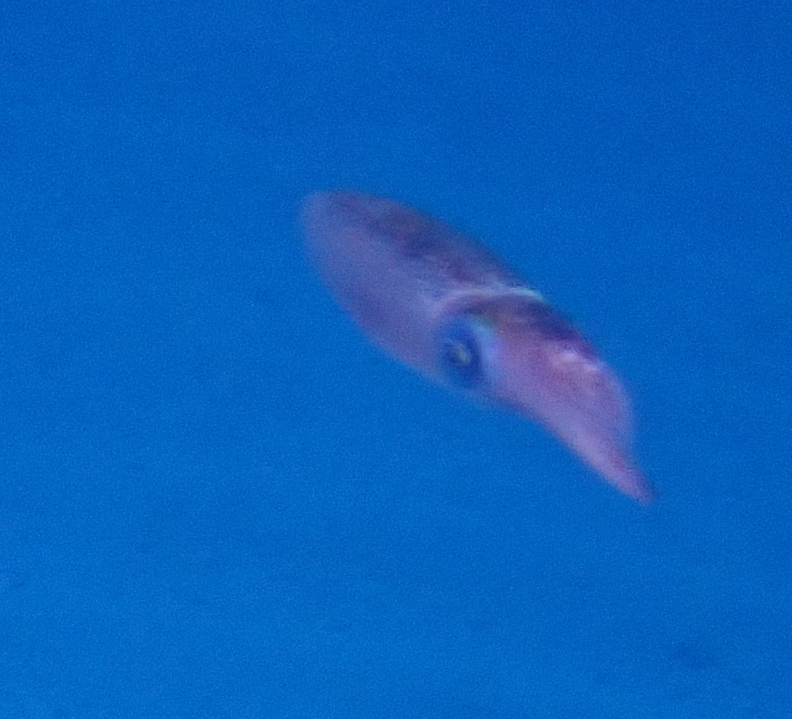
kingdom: Animalia
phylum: Mollusca
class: Cephalopoda
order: Myopsida
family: Loliginidae
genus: Sepioteuthis
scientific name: Sepioteuthis lessoniana
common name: Bigfin reef squid
